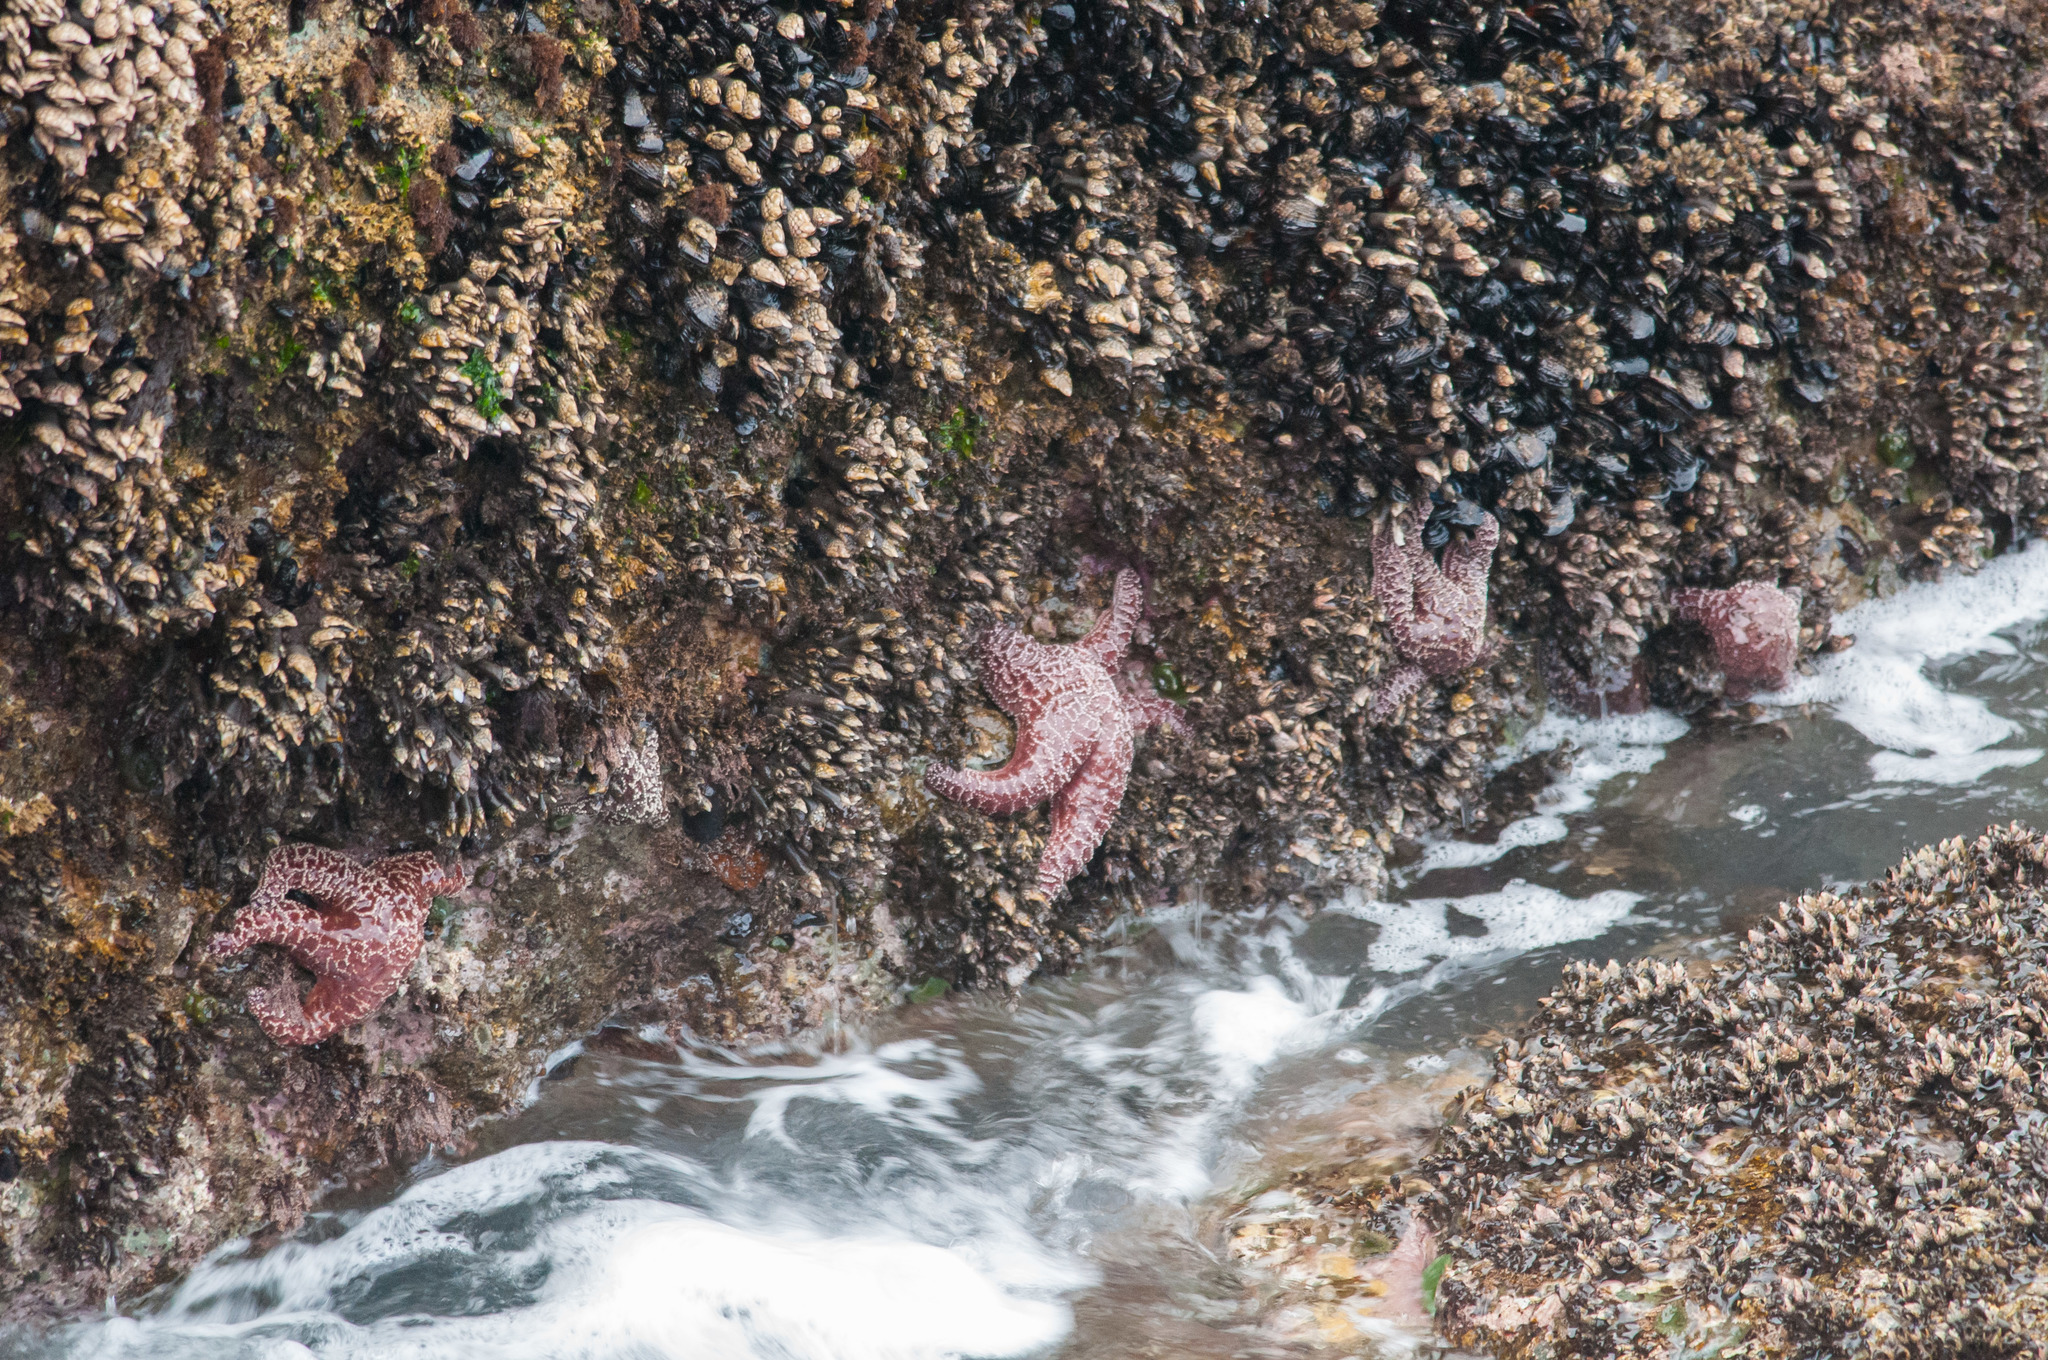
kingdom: Animalia
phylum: Echinodermata
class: Asteroidea
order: Forcipulatida
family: Asteriidae
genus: Pisaster
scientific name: Pisaster ochraceus
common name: Ochre stars
